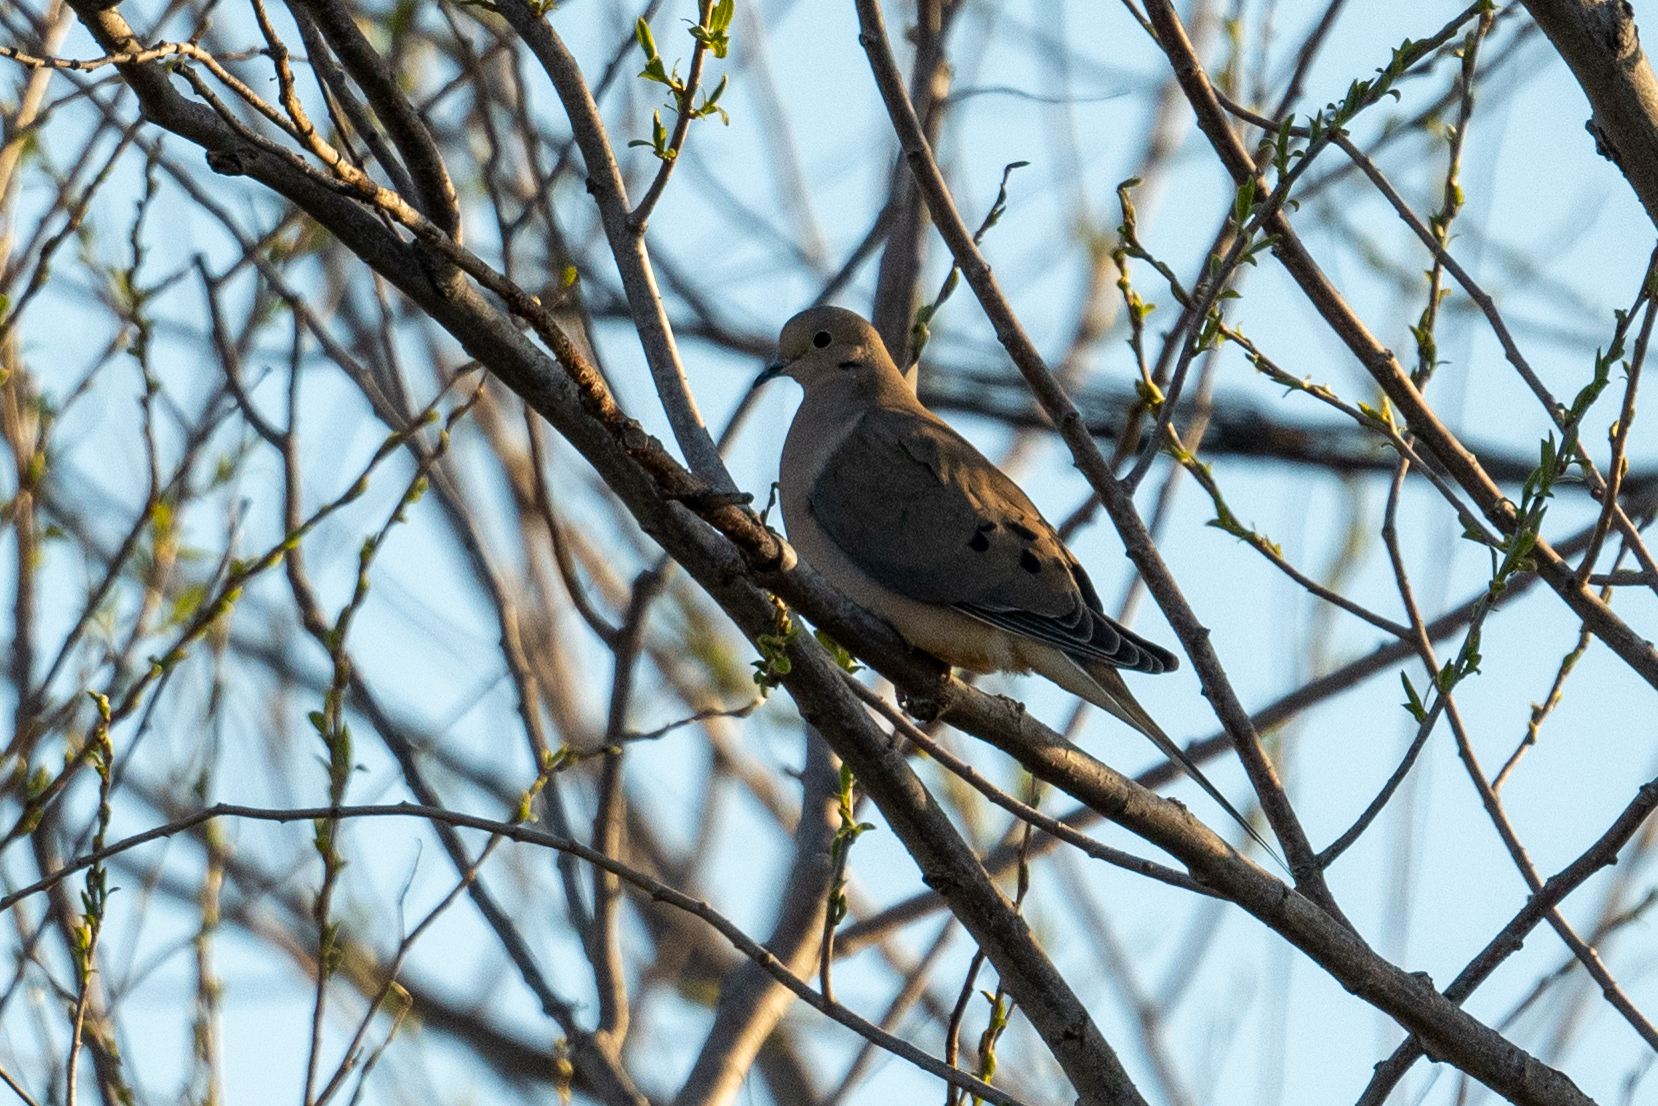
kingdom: Animalia
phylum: Chordata
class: Aves
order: Columbiformes
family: Columbidae
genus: Zenaida
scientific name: Zenaida macroura
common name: Mourning dove
